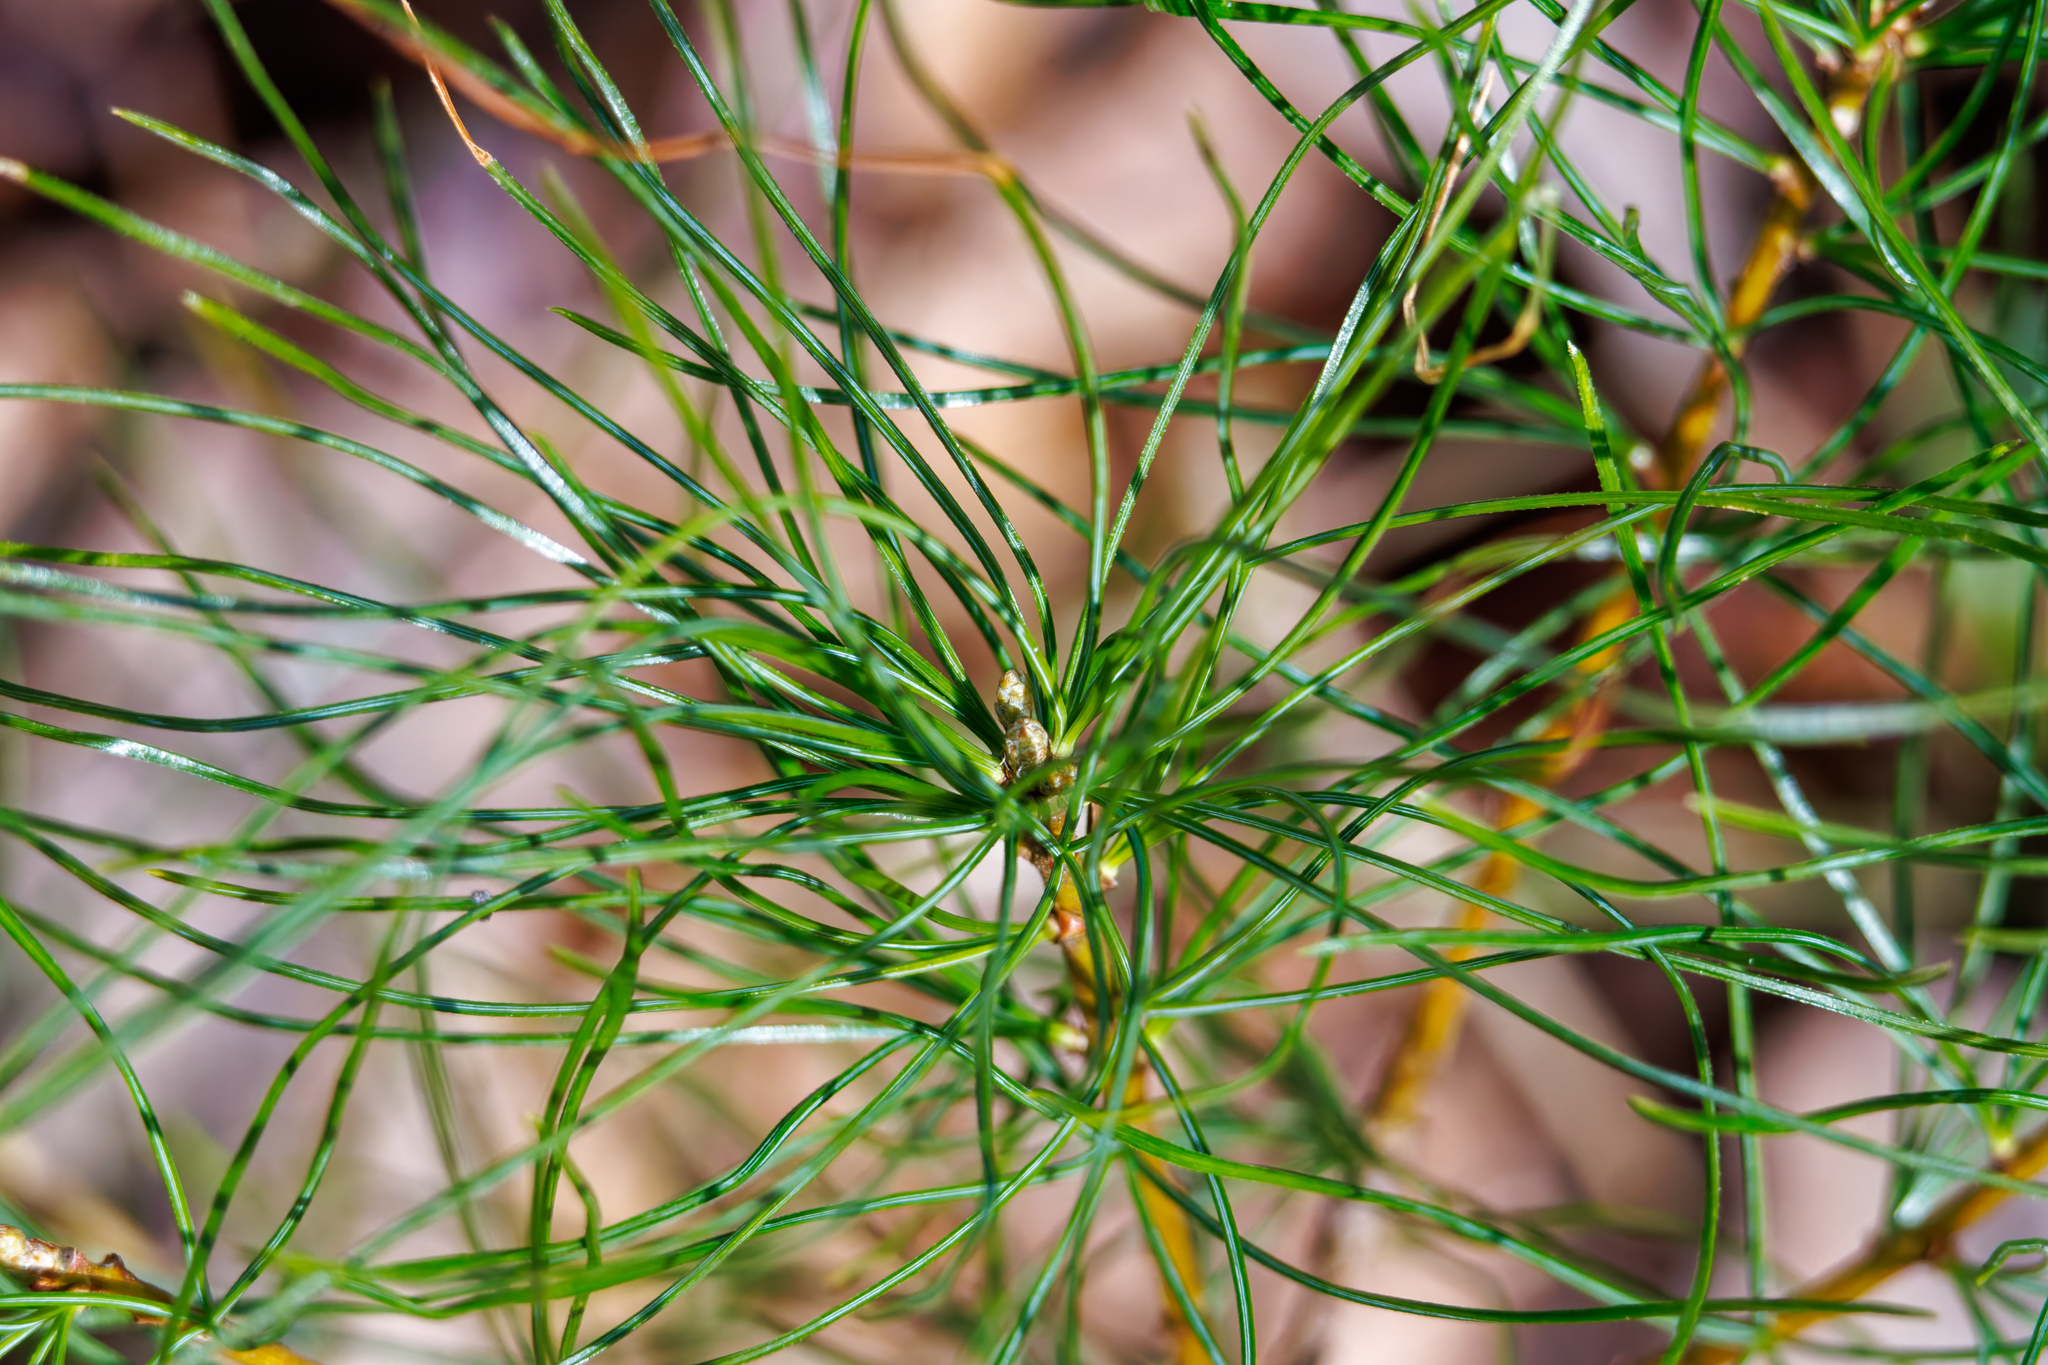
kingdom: Plantae
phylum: Tracheophyta
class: Pinopsida
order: Pinales
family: Pinaceae
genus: Pinus
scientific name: Pinus strobus
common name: Weymouth pine
